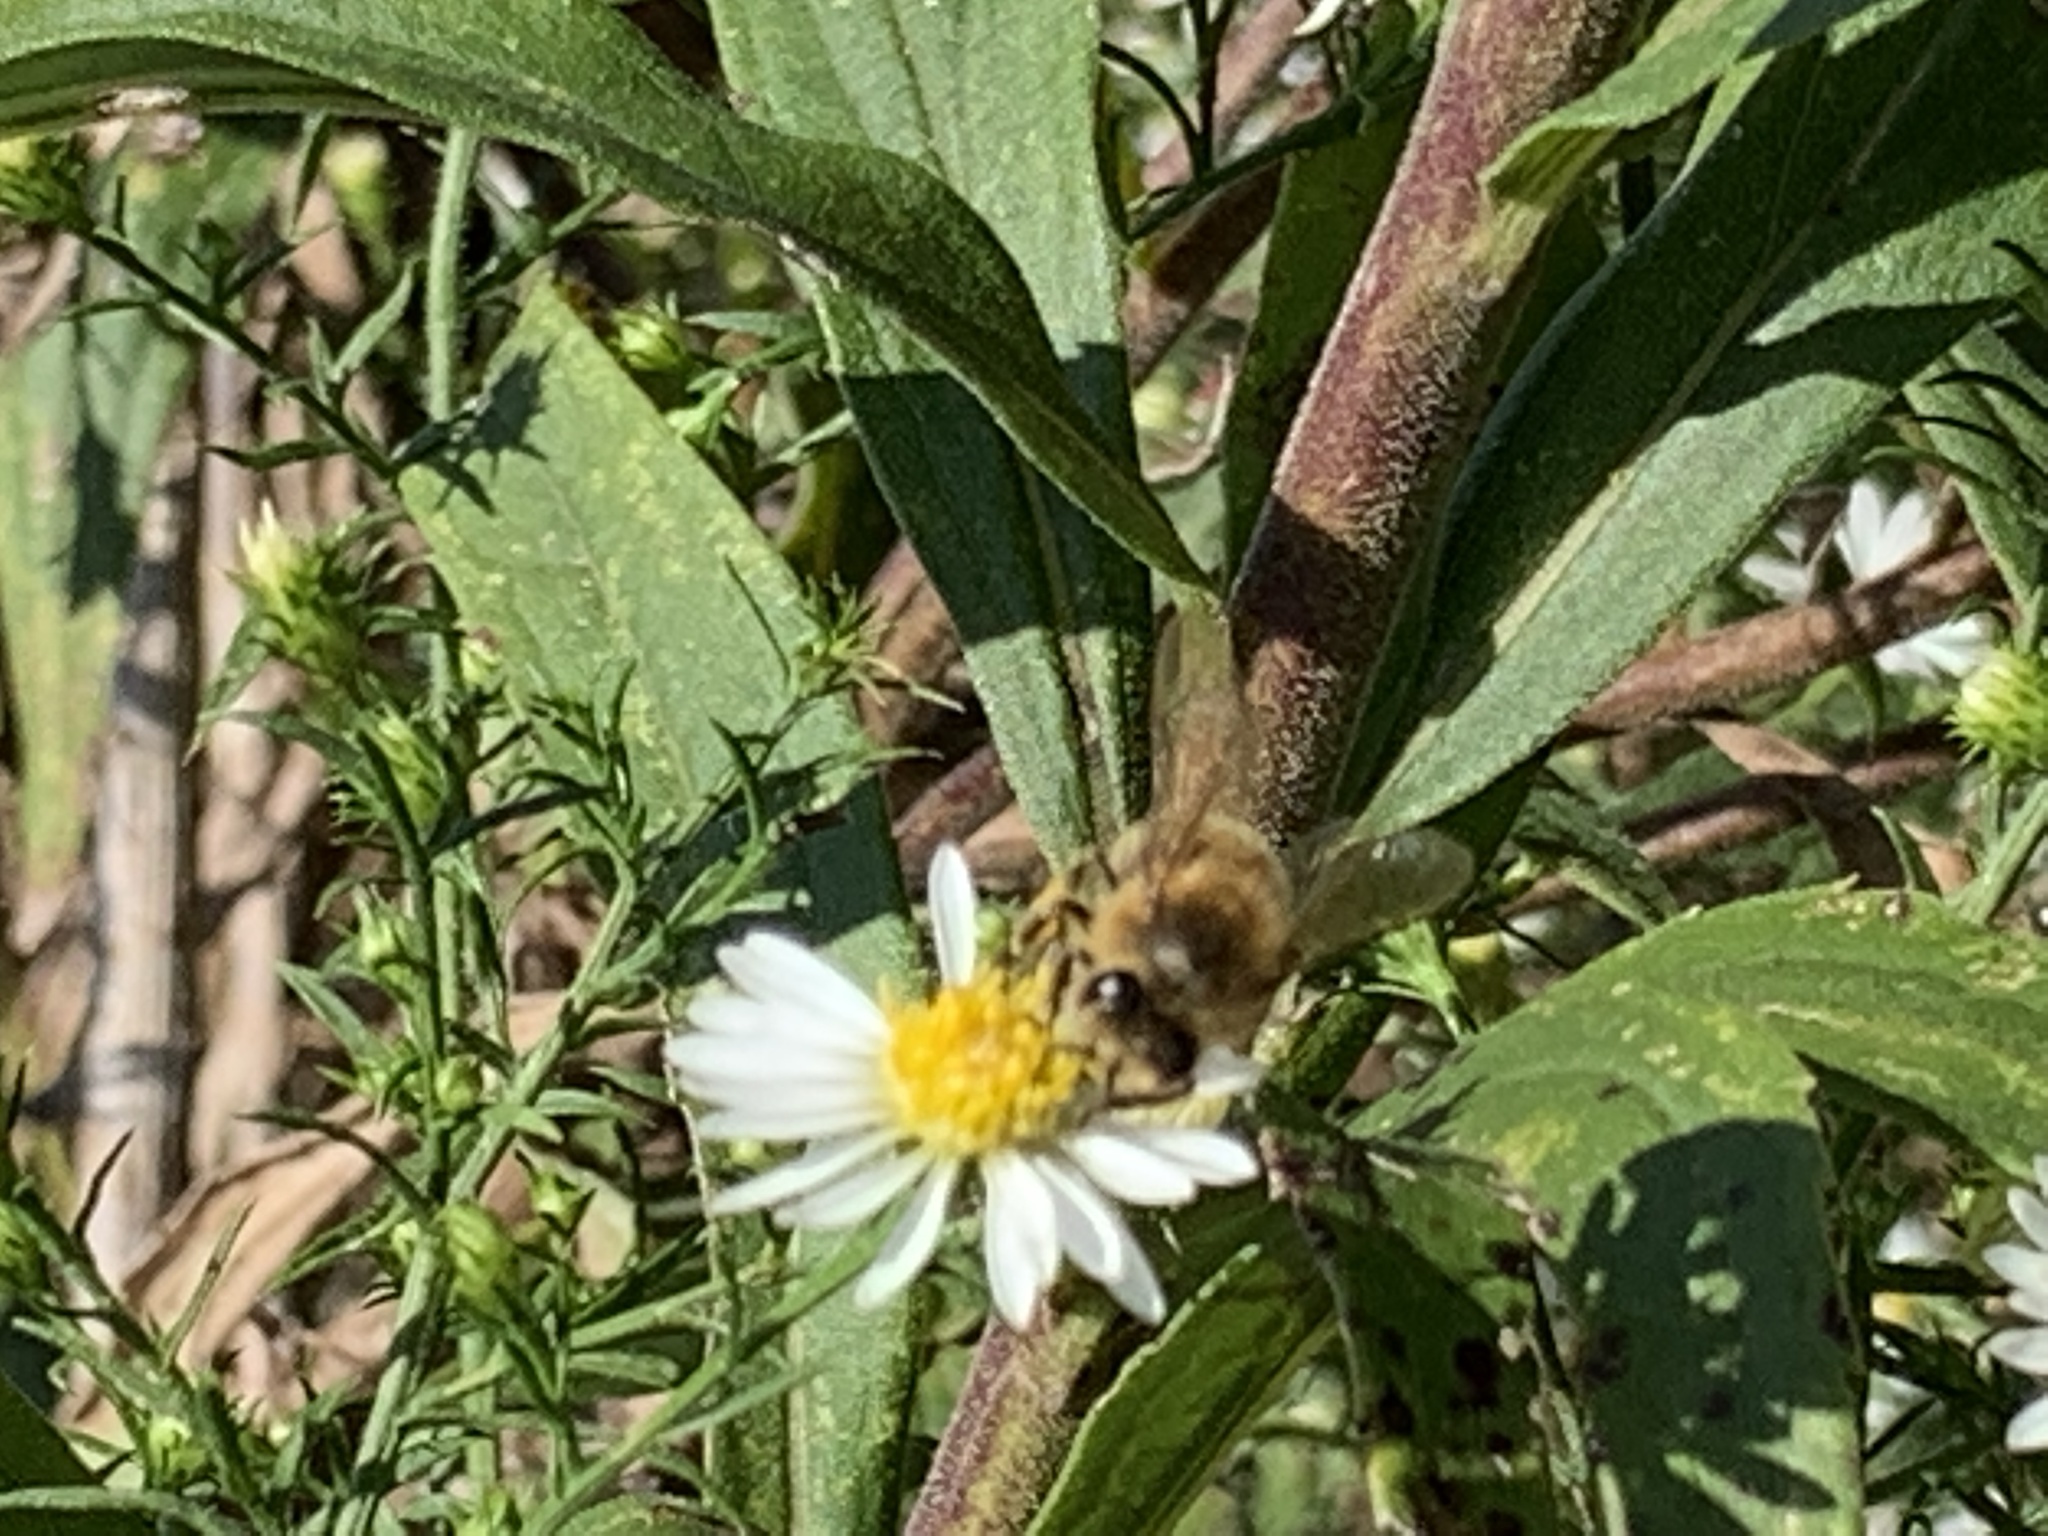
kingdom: Animalia
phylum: Arthropoda
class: Insecta
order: Hymenoptera
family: Apidae
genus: Apis
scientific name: Apis mellifera
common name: Honey bee
